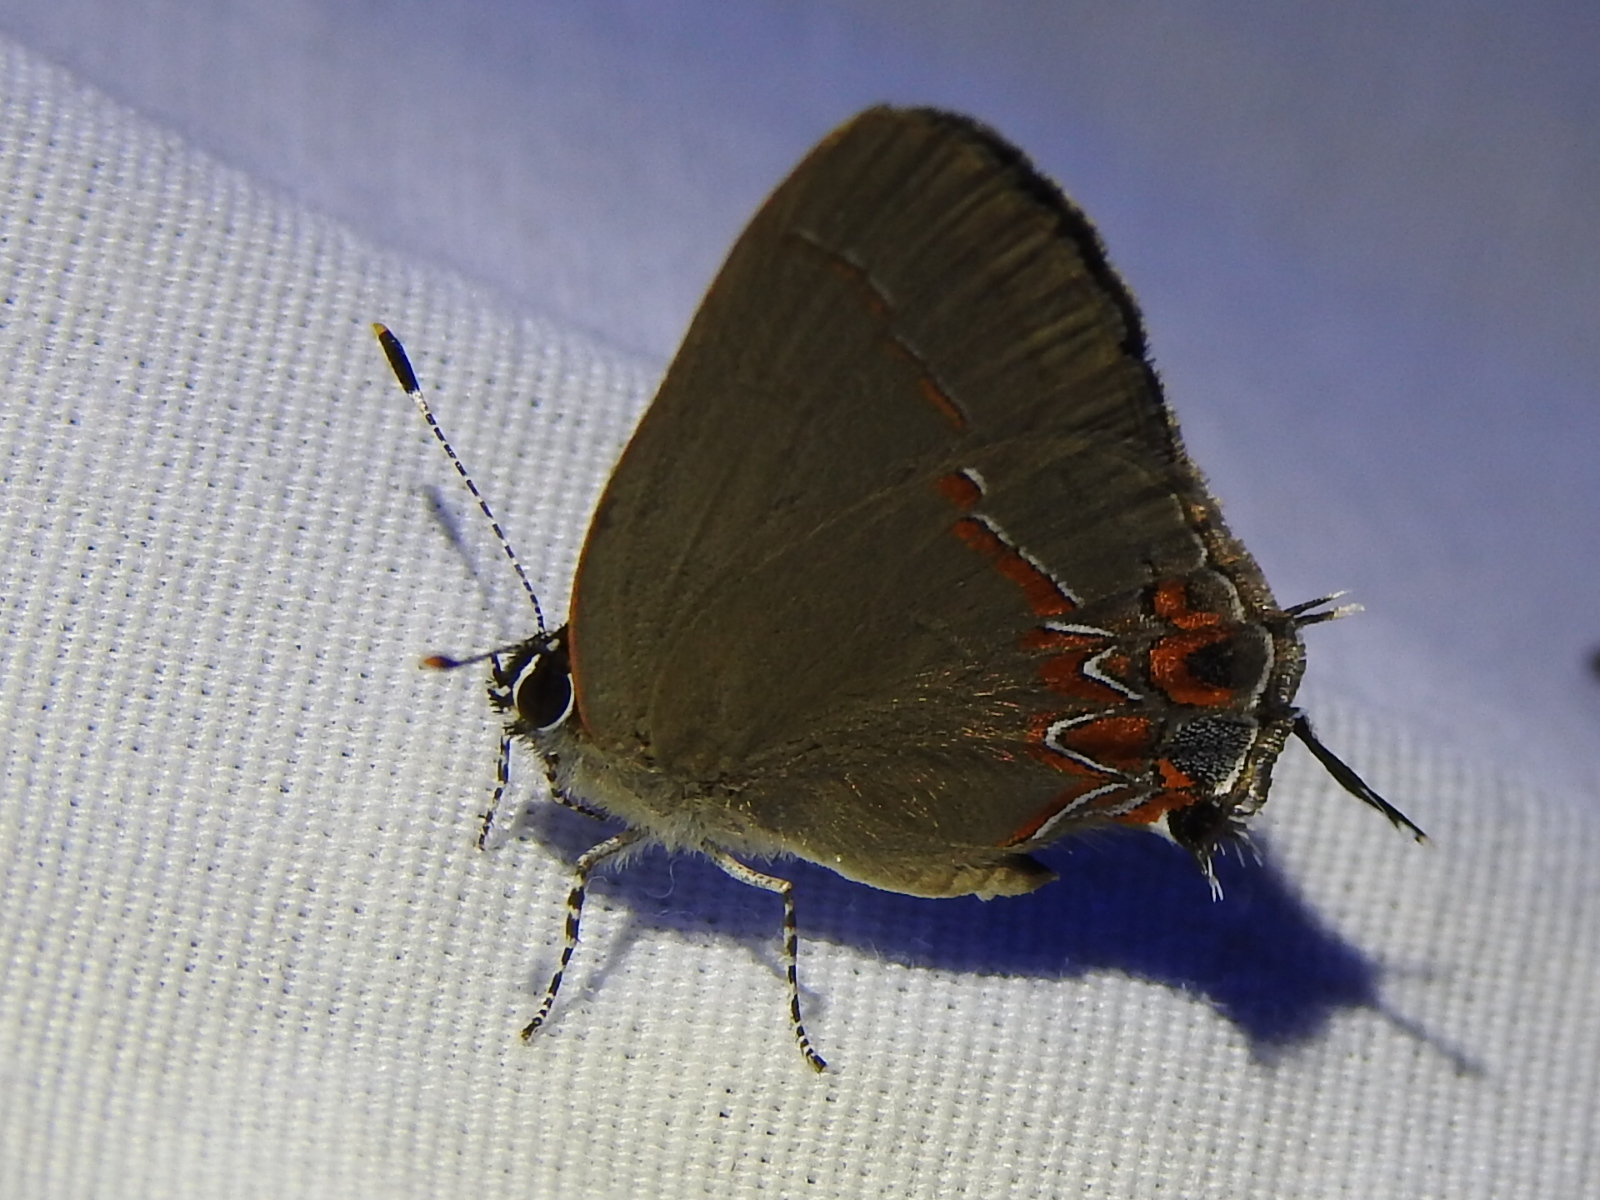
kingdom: Animalia
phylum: Arthropoda
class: Insecta
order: Lepidoptera
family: Lycaenidae
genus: Calycopis
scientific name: Calycopis isobeon
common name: Dusky-blue groundstreak
